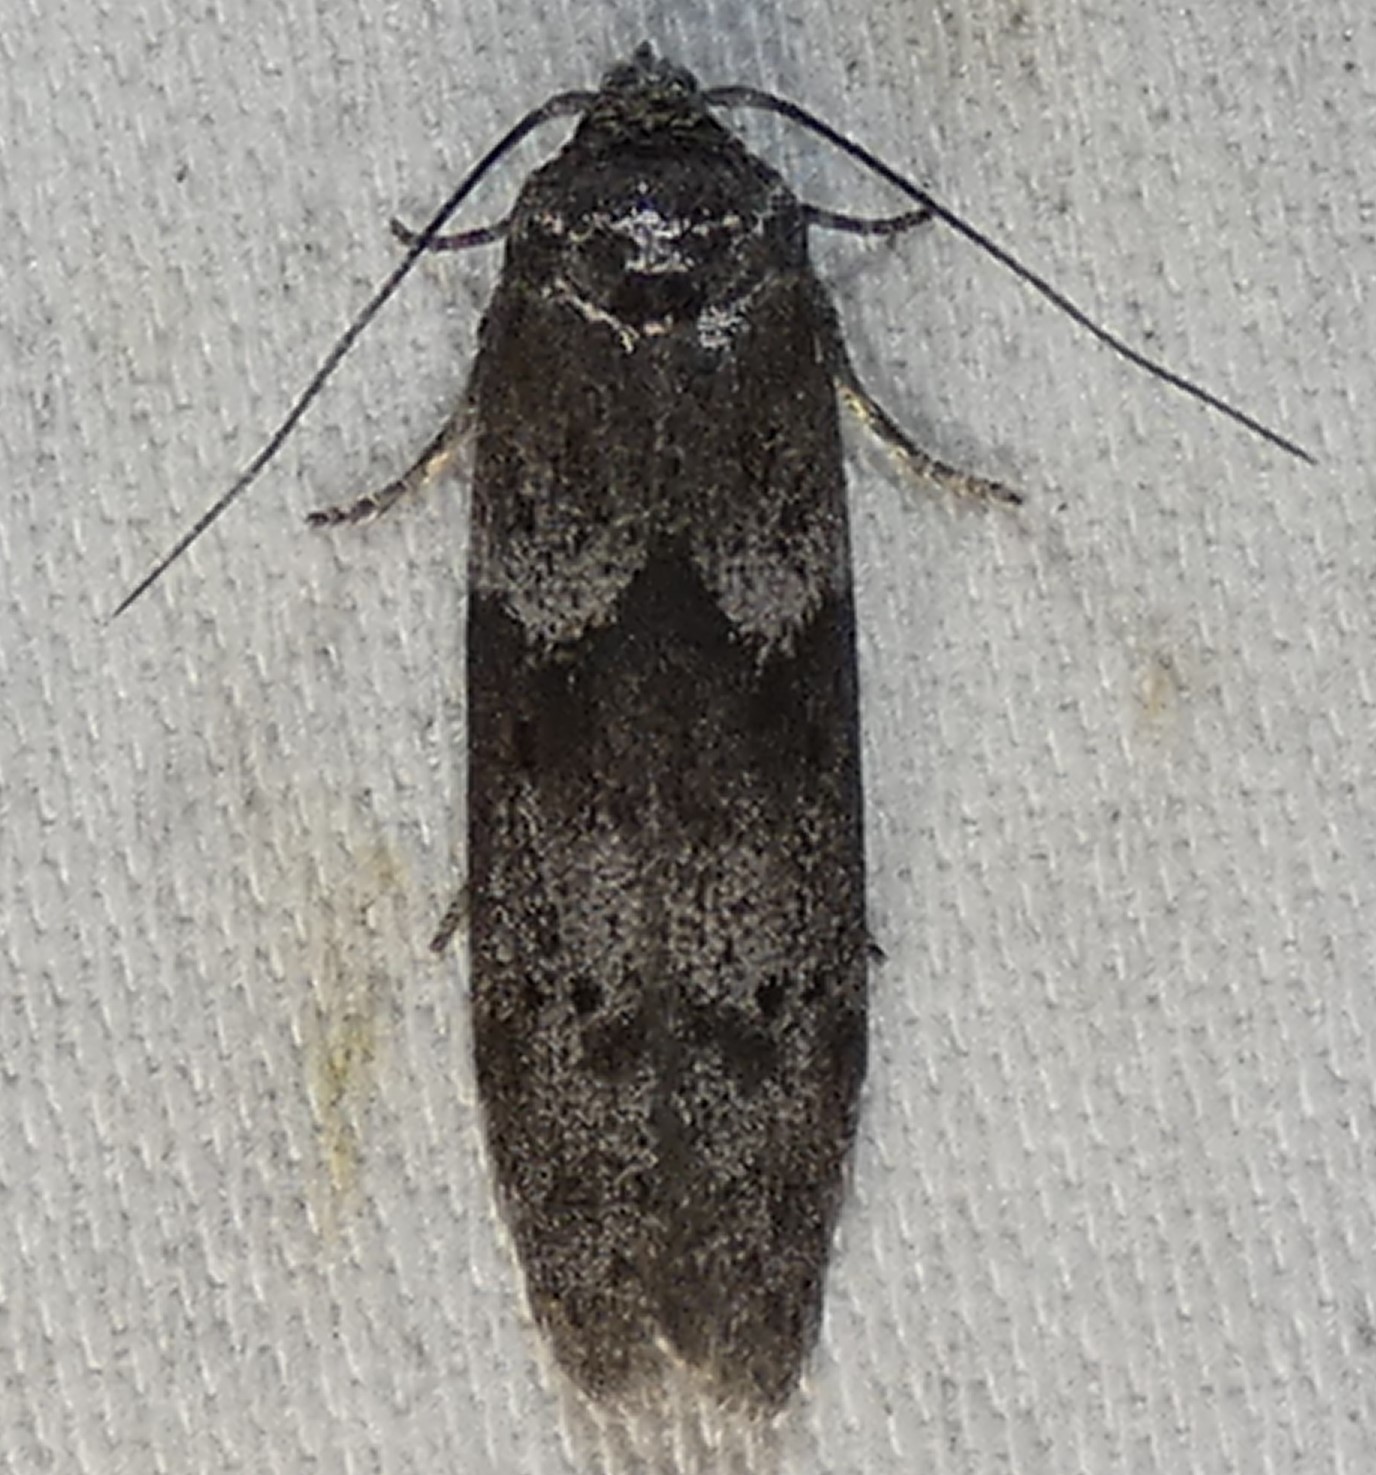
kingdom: Animalia
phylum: Arthropoda
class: Insecta
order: Lepidoptera
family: Blastobasidae
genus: Blastobasis
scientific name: Blastobasis glandulella
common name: Acorn moth
